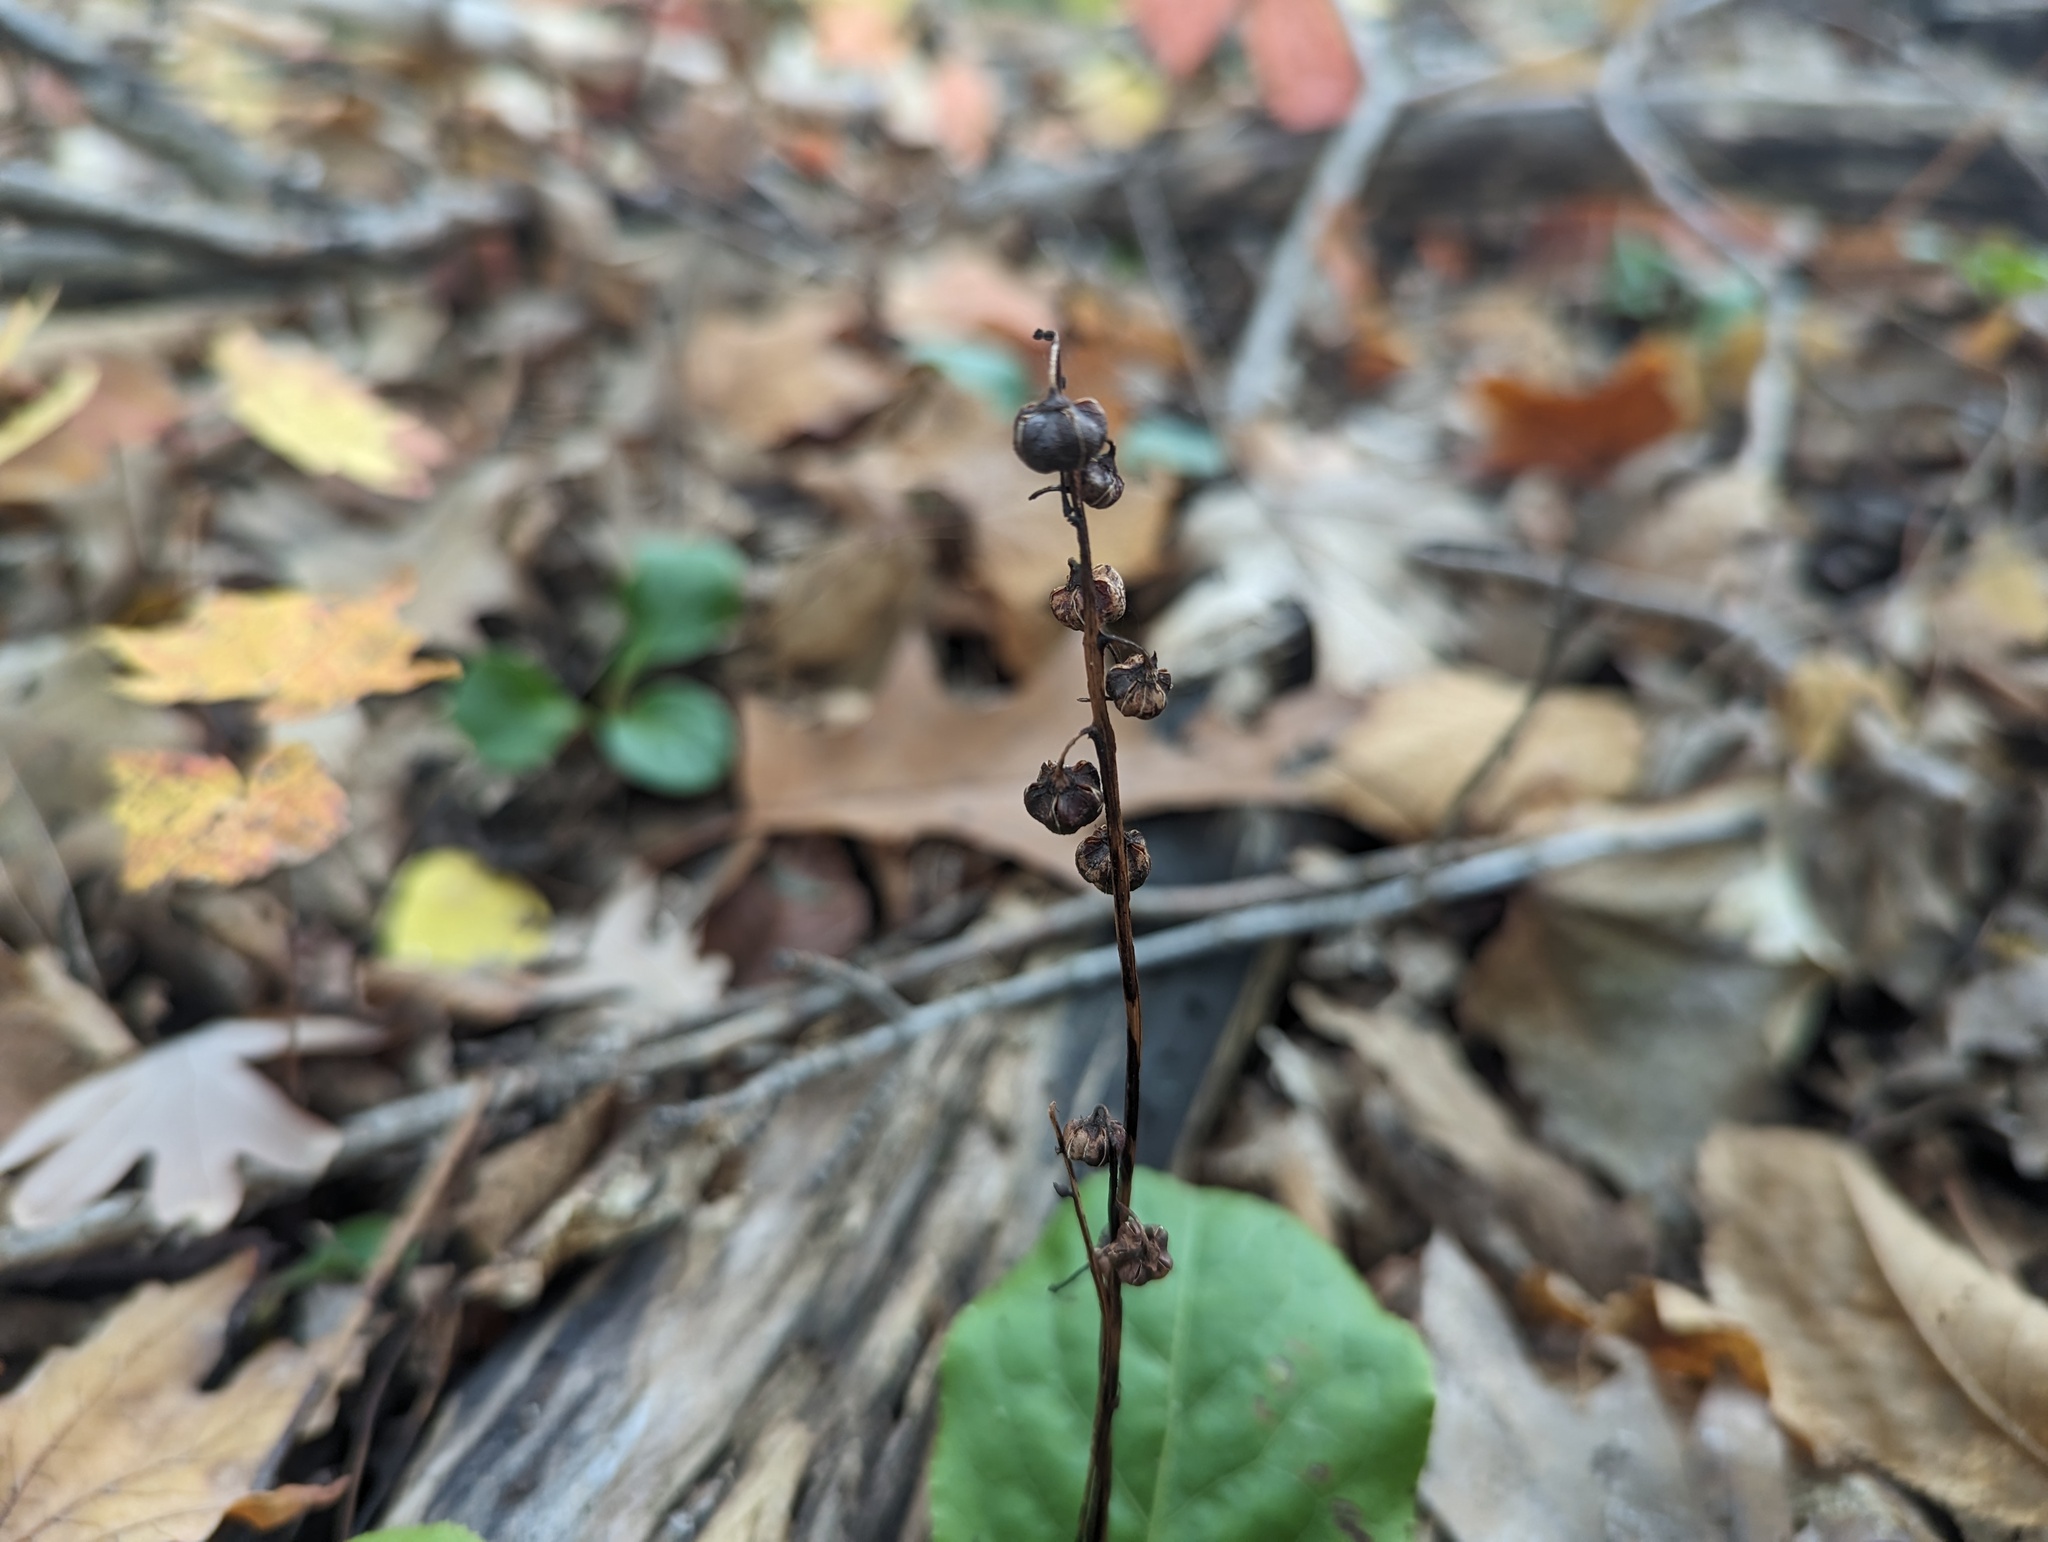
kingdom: Plantae
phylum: Tracheophyta
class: Magnoliopsida
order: Ericales
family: Ericaceae
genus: Pyrola
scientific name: Pyrola elliptica
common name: Shinleaf
